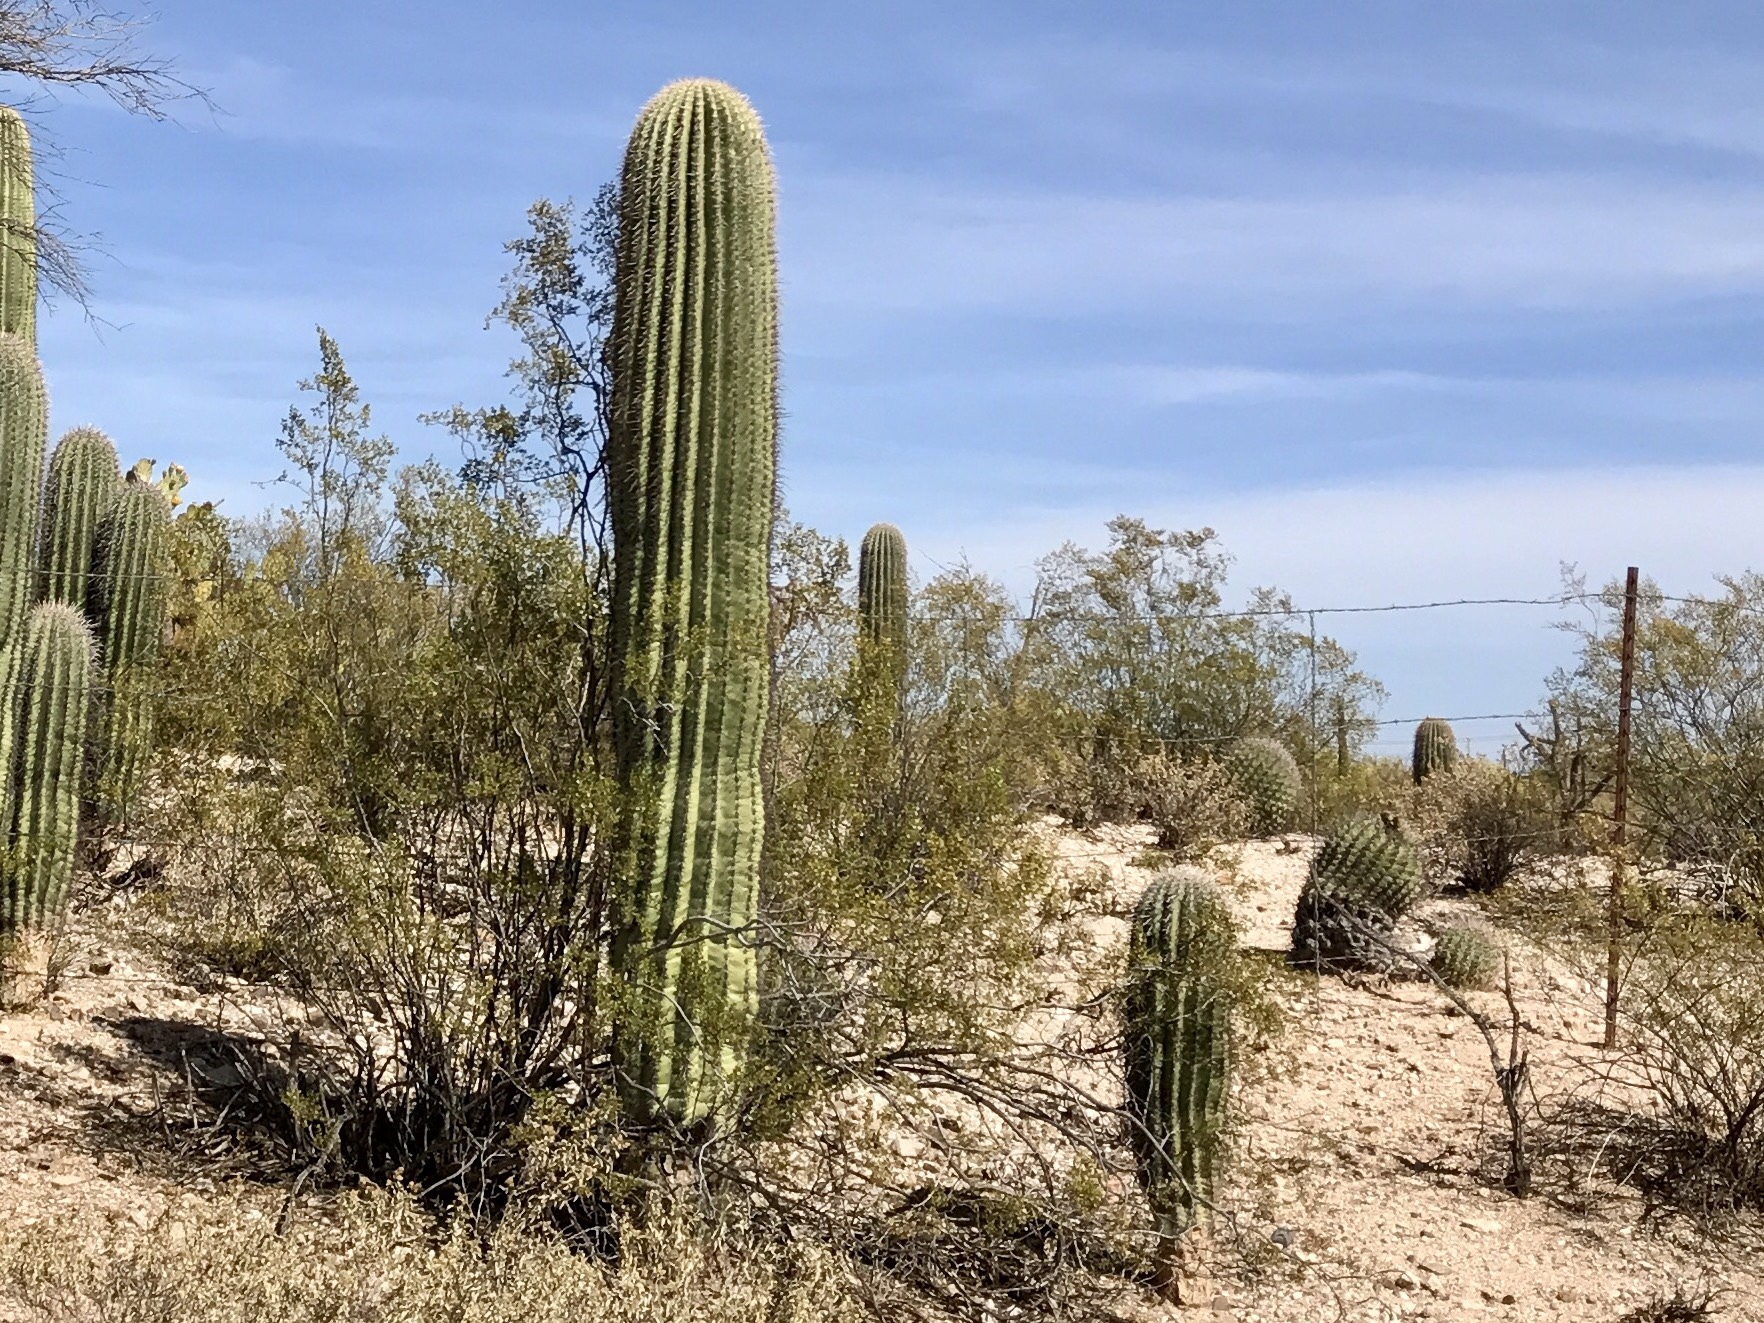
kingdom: Plantae
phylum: Tracheophyta
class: Magnoliopsida
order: Caryophyllales
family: Cactaceae
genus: Carnegiea
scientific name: Carnegiea gigantea
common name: Saguaro
